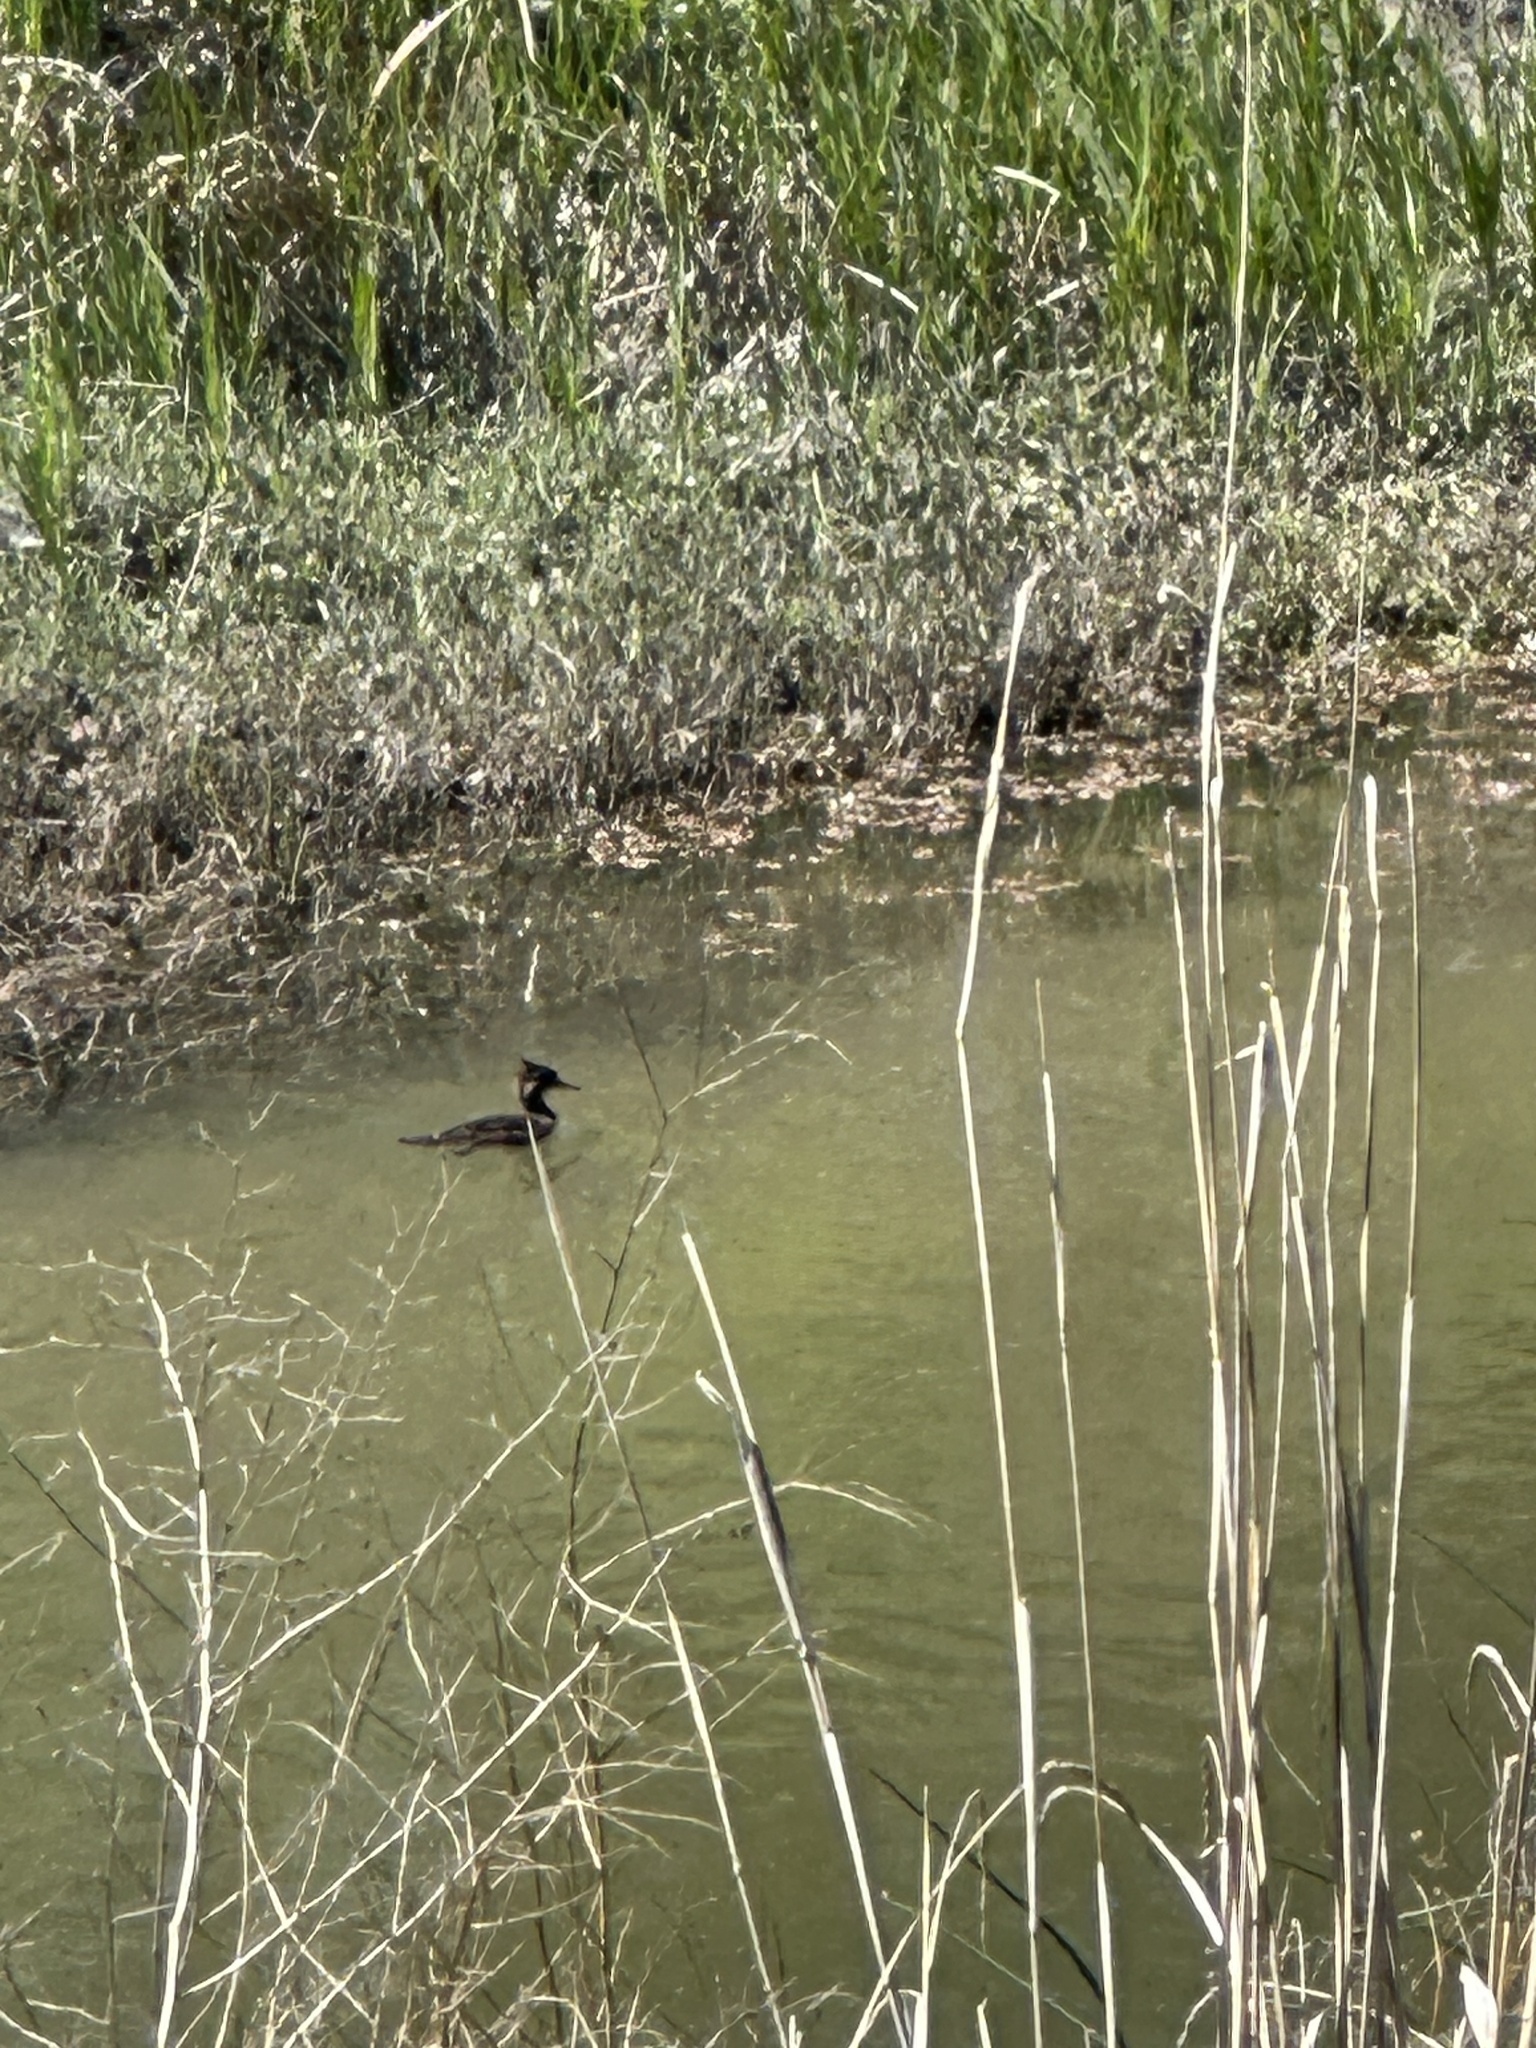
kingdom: Animalia
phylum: Chordata
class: Aves
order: Anseriformes
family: Anatidae
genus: Lophodytes
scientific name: Lophodytes cucullatus
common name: Hooded merganser
